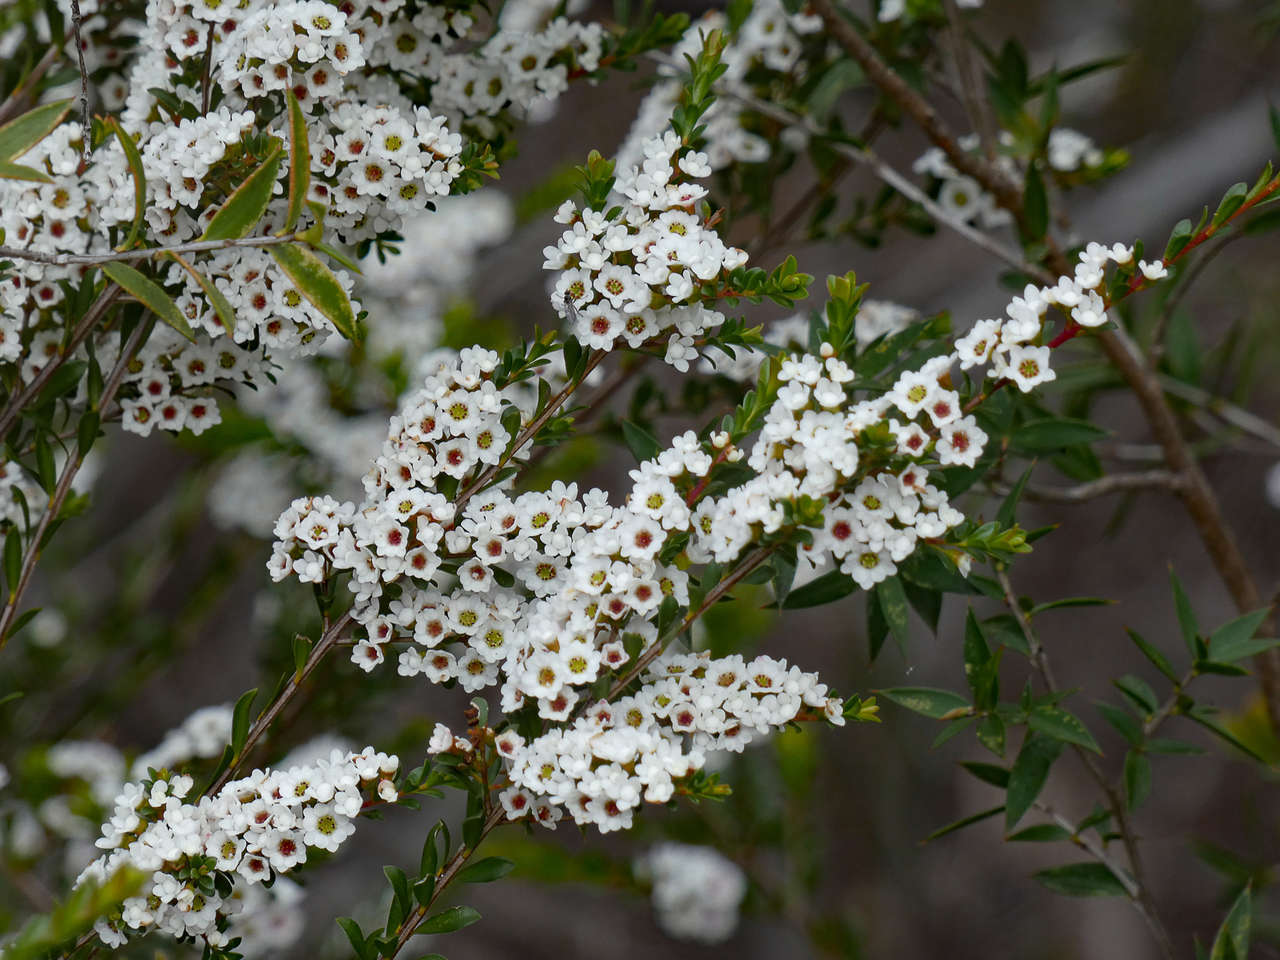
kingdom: Plantae
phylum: Tracheophyta
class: Magnoliopsida
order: Myrtales
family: Myrtaceae
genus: Thryptomene
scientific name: Thryptomene calycina
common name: Grampians thryptomene
